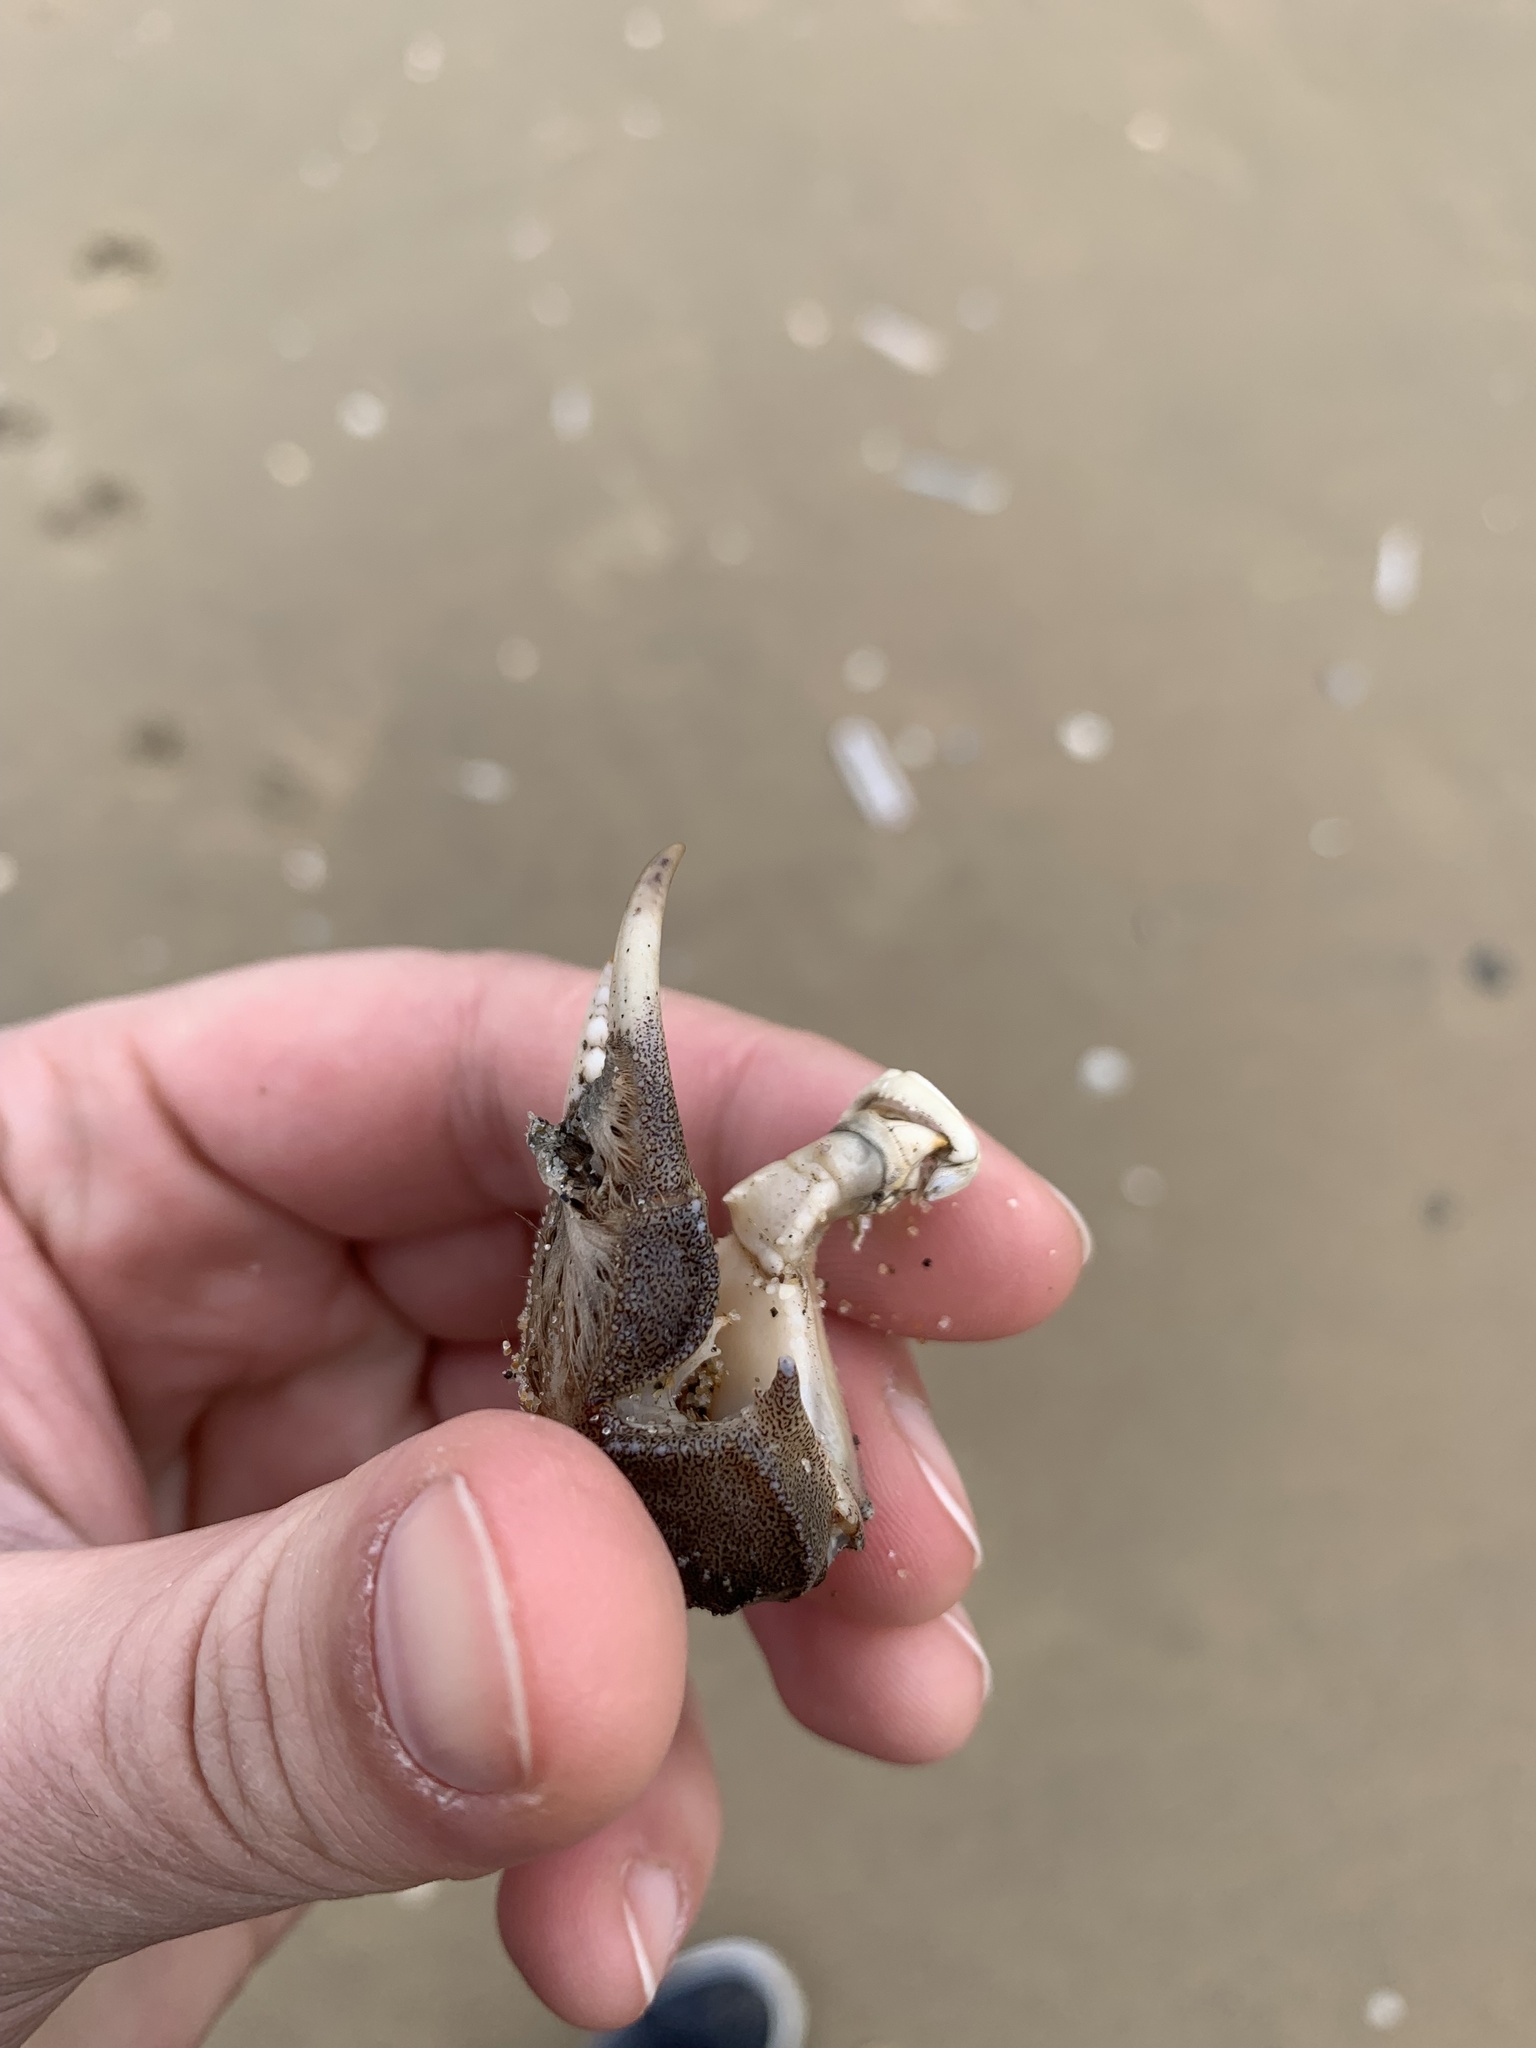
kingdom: Animalia
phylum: Arthropoda
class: Malacostraca
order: Decapoda
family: Varunidae
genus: Eriocheir
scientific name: Eriocheir sinensis
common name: Chinese mitten crab
